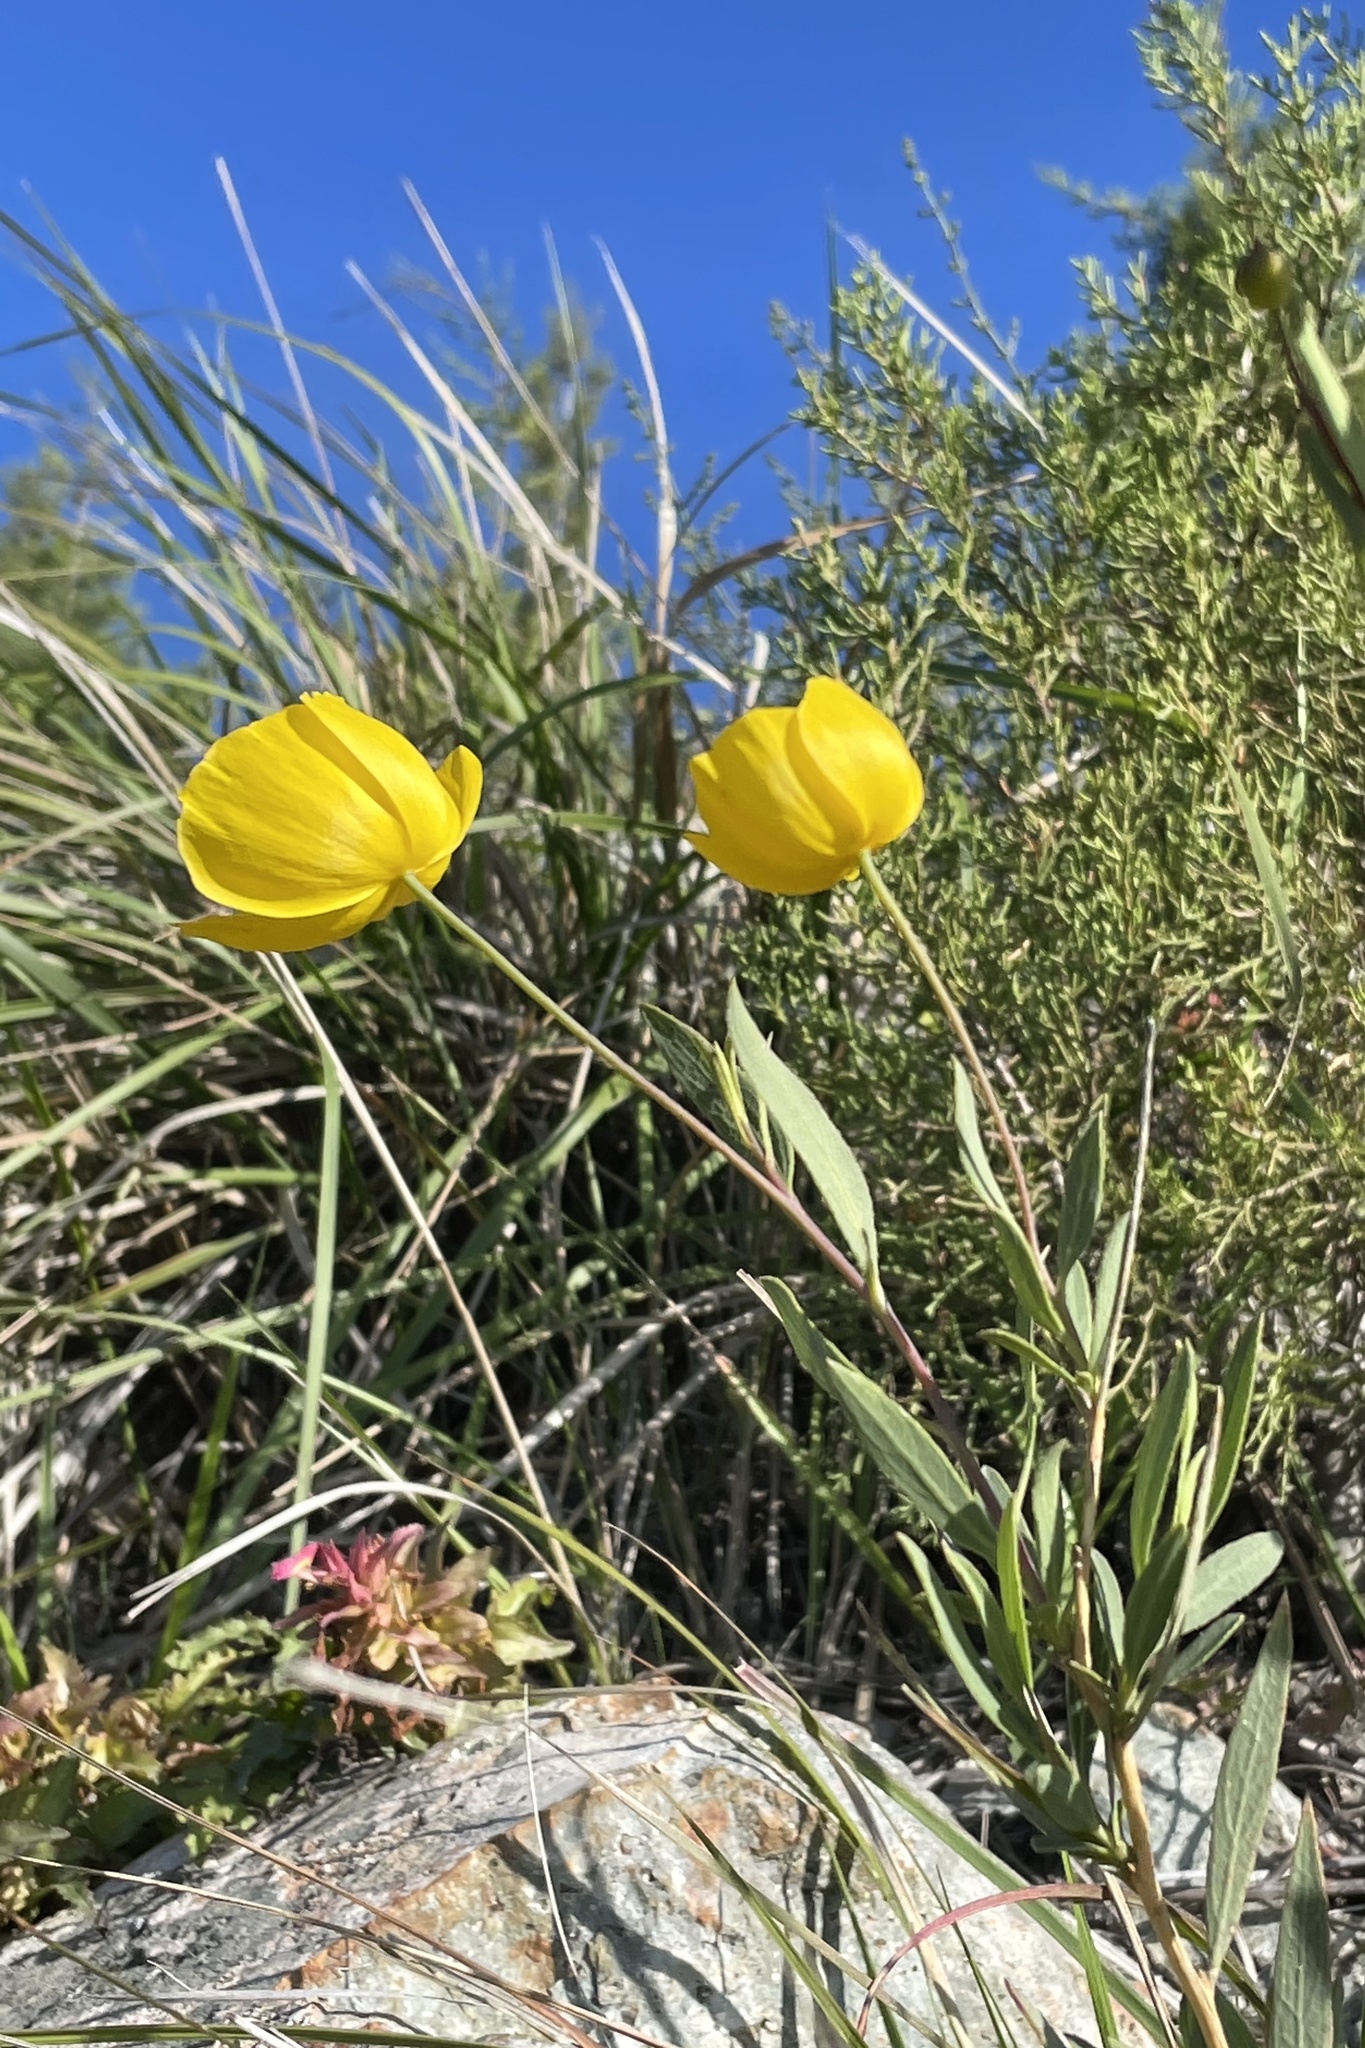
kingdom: Plantae
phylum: Tracheophyta
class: Magnoliopsida
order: Ranunculales
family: Papaveraceae
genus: Dendromecon
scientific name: Dendromecon rigida
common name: Tree poppy
